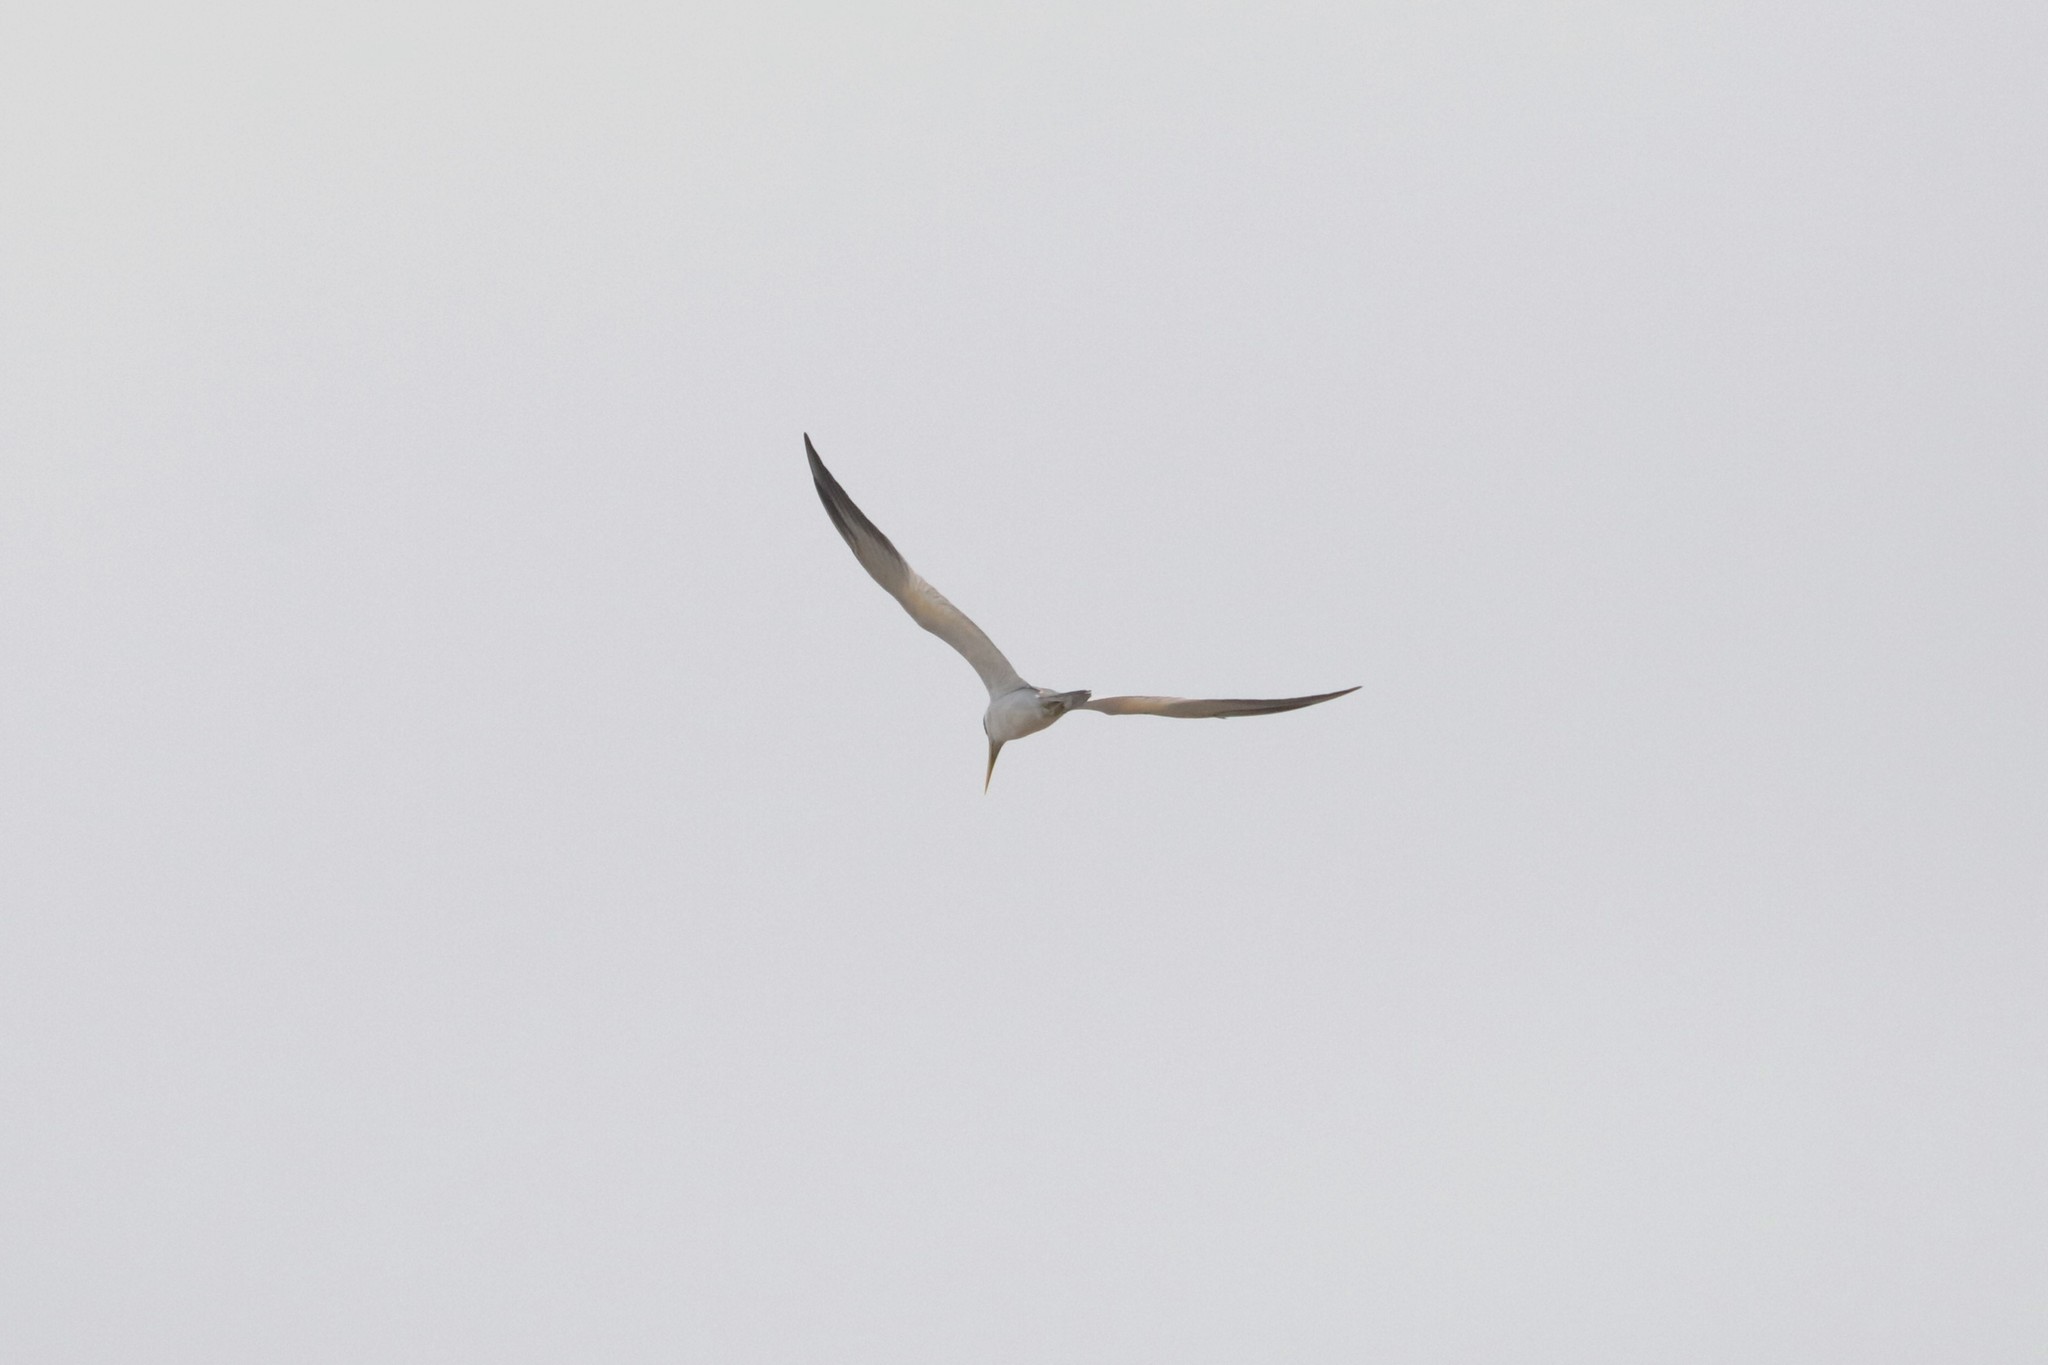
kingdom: Animalia
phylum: Chordata
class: Aves
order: Charadriiformes
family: Laridae
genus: Phaetusa
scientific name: Phaetusa simplex
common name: Large-billed tern
